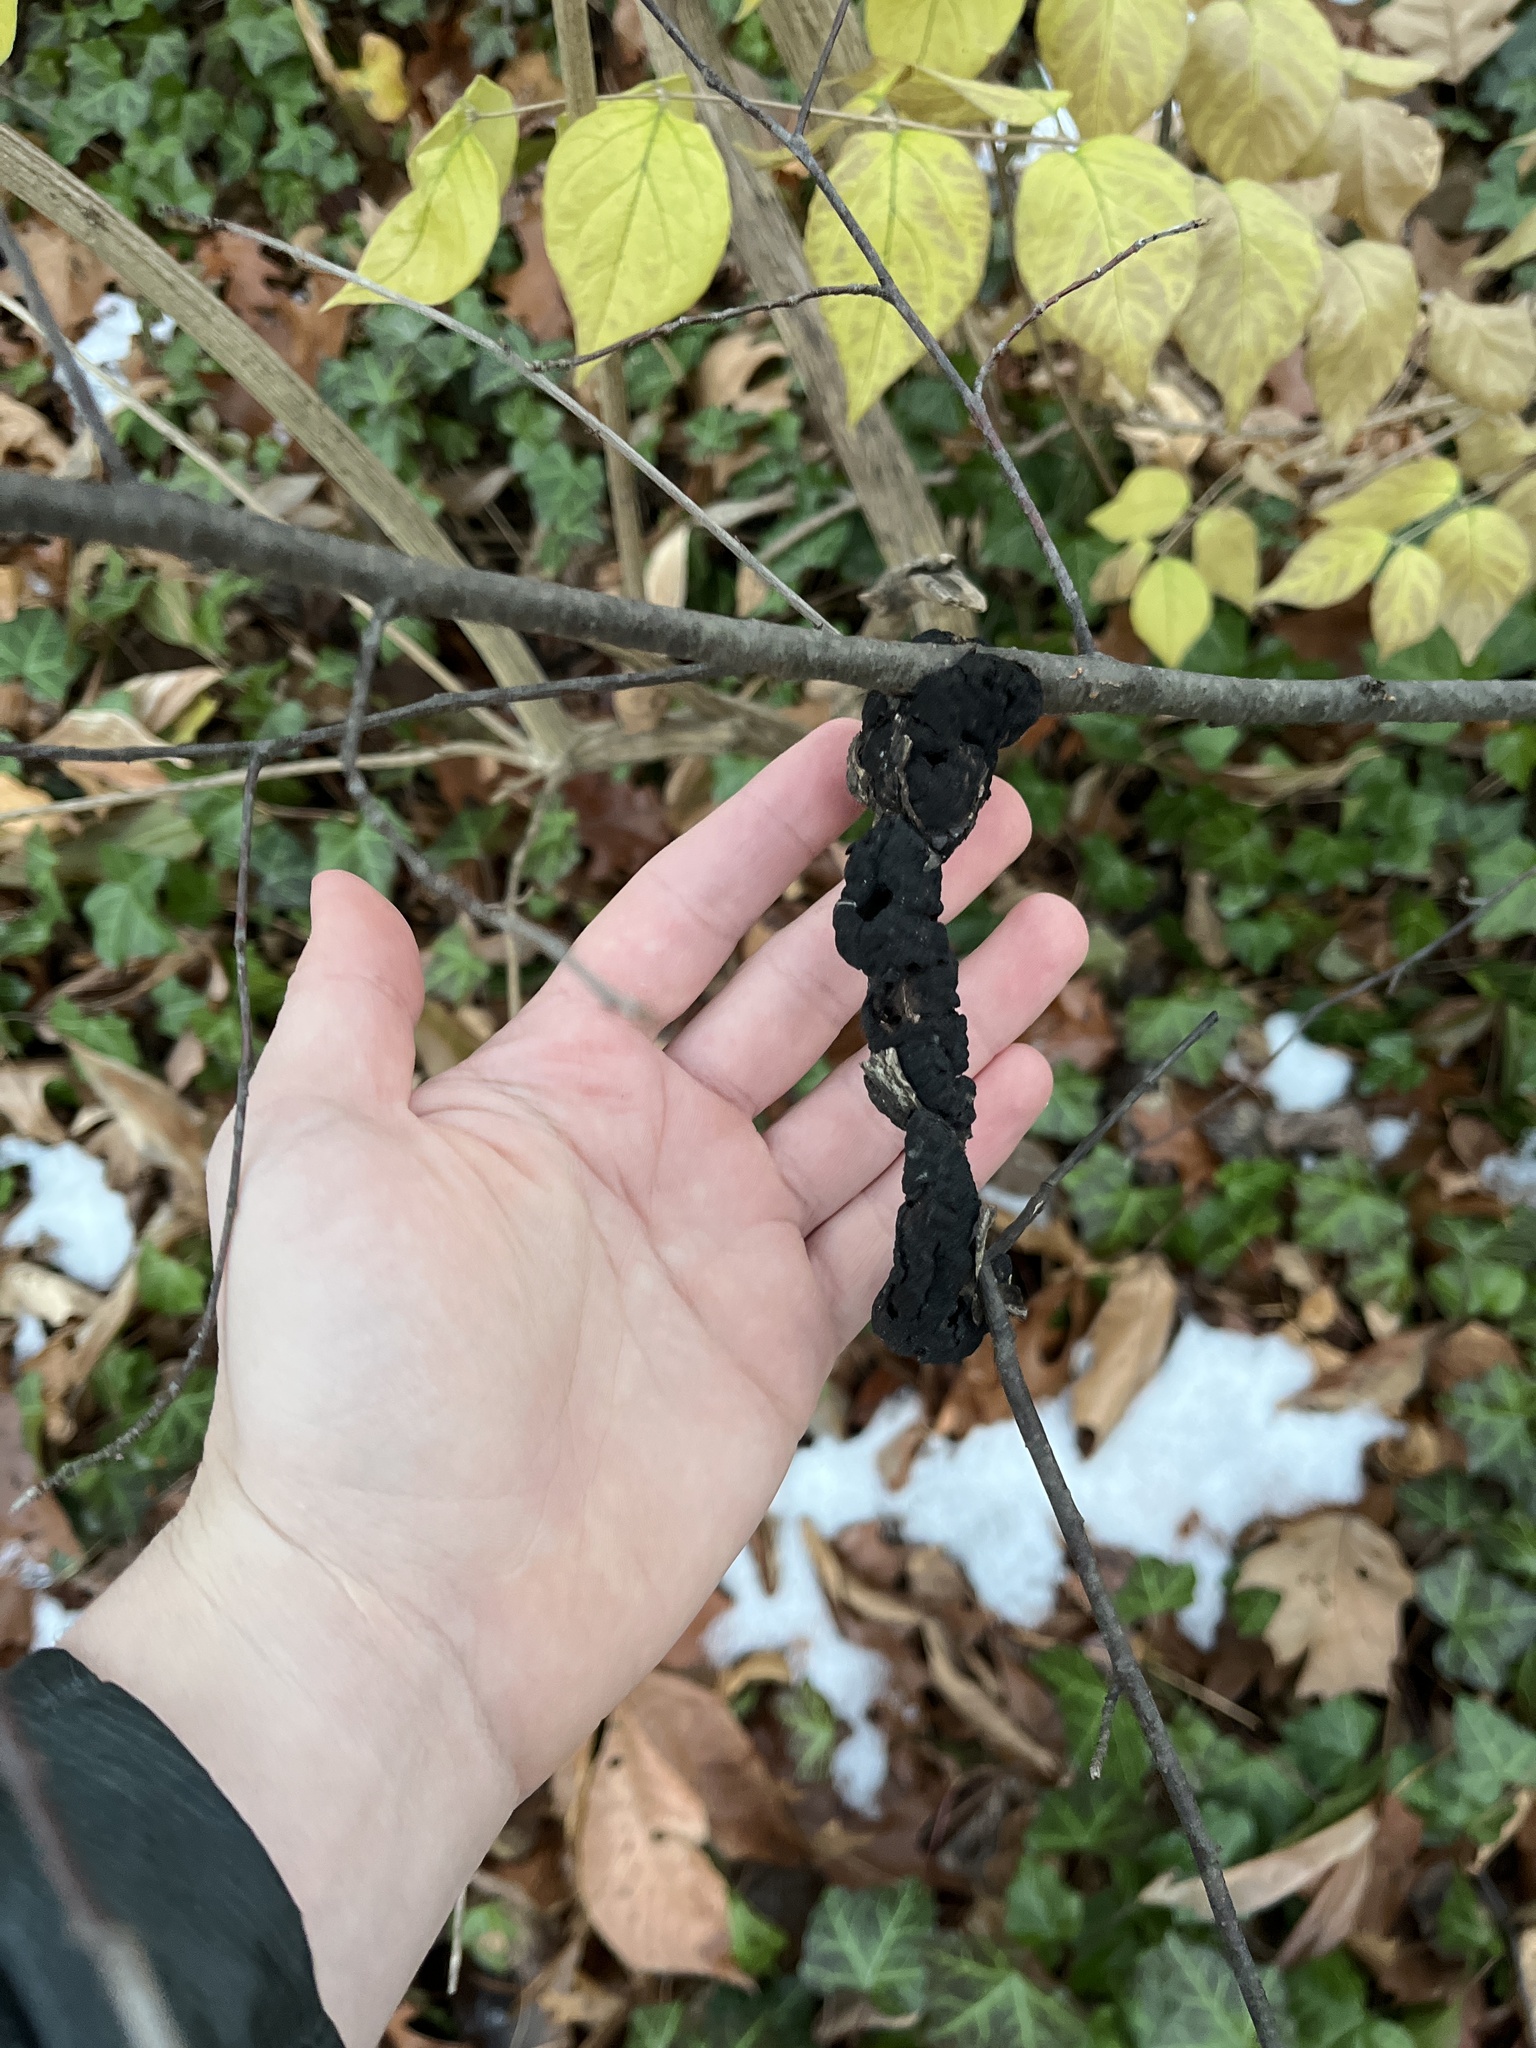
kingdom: Fungi
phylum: Ascomycota
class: Dothideomycetes
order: Venturiales
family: Venturiaceae
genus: Apiosporina
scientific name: Apiosporina morbosa
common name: Black knot
